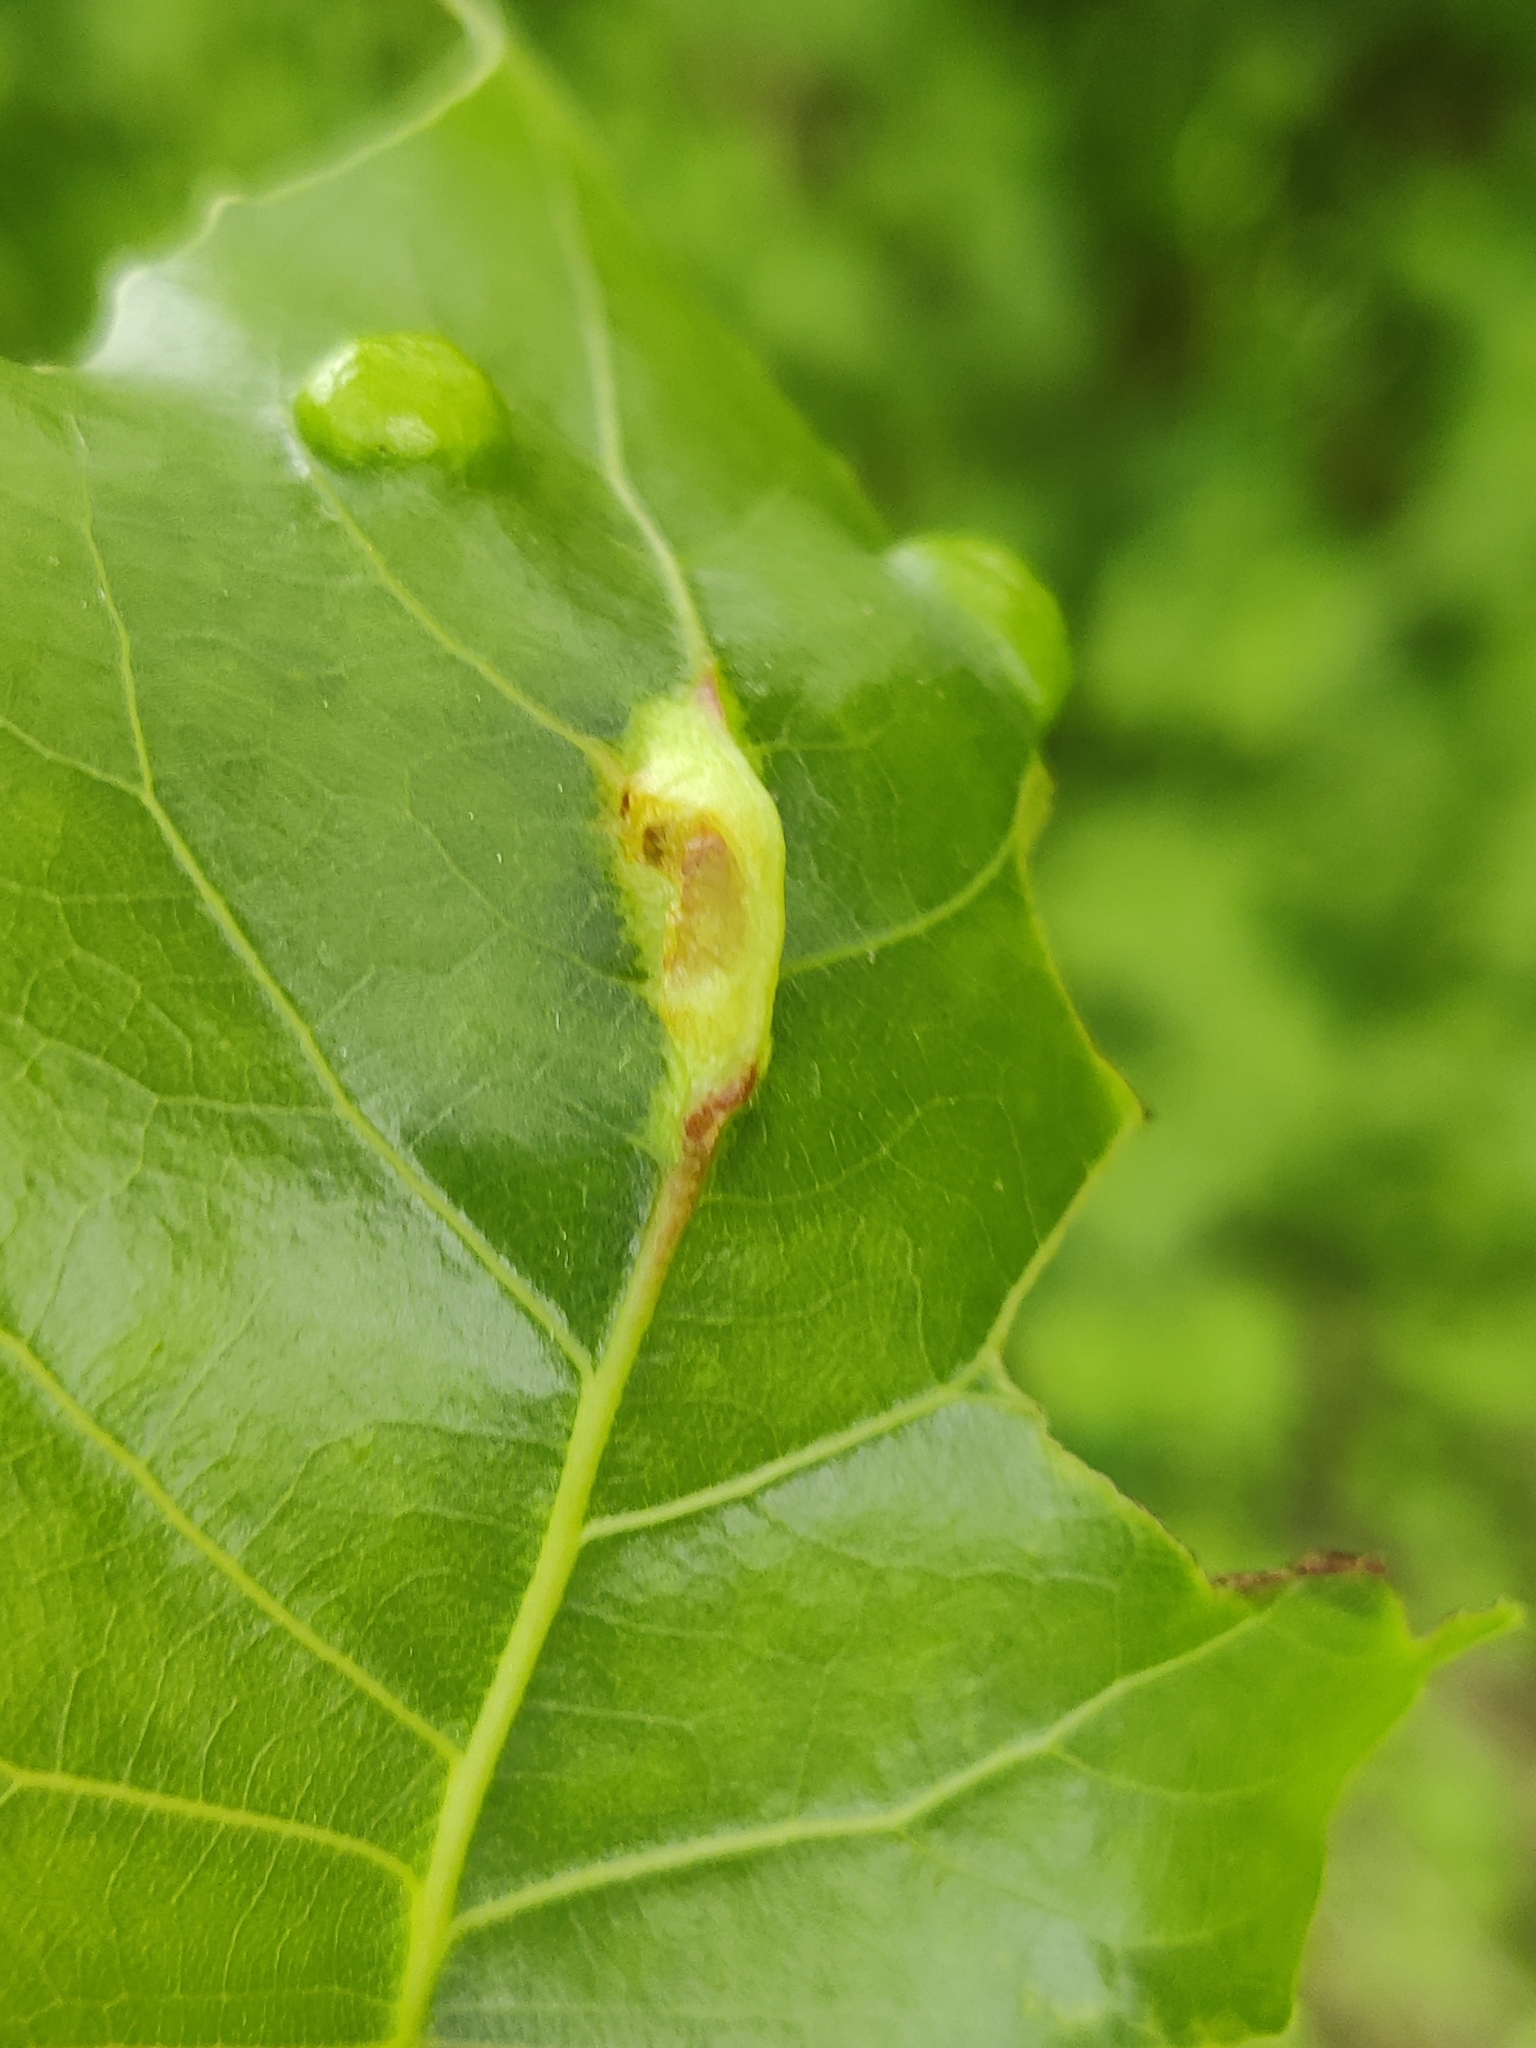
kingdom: Animalia
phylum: Arthropoda
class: Insecta
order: Hemiptera
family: Aphididae
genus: Pachypappa
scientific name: Pachypappa pseudobyrsa
